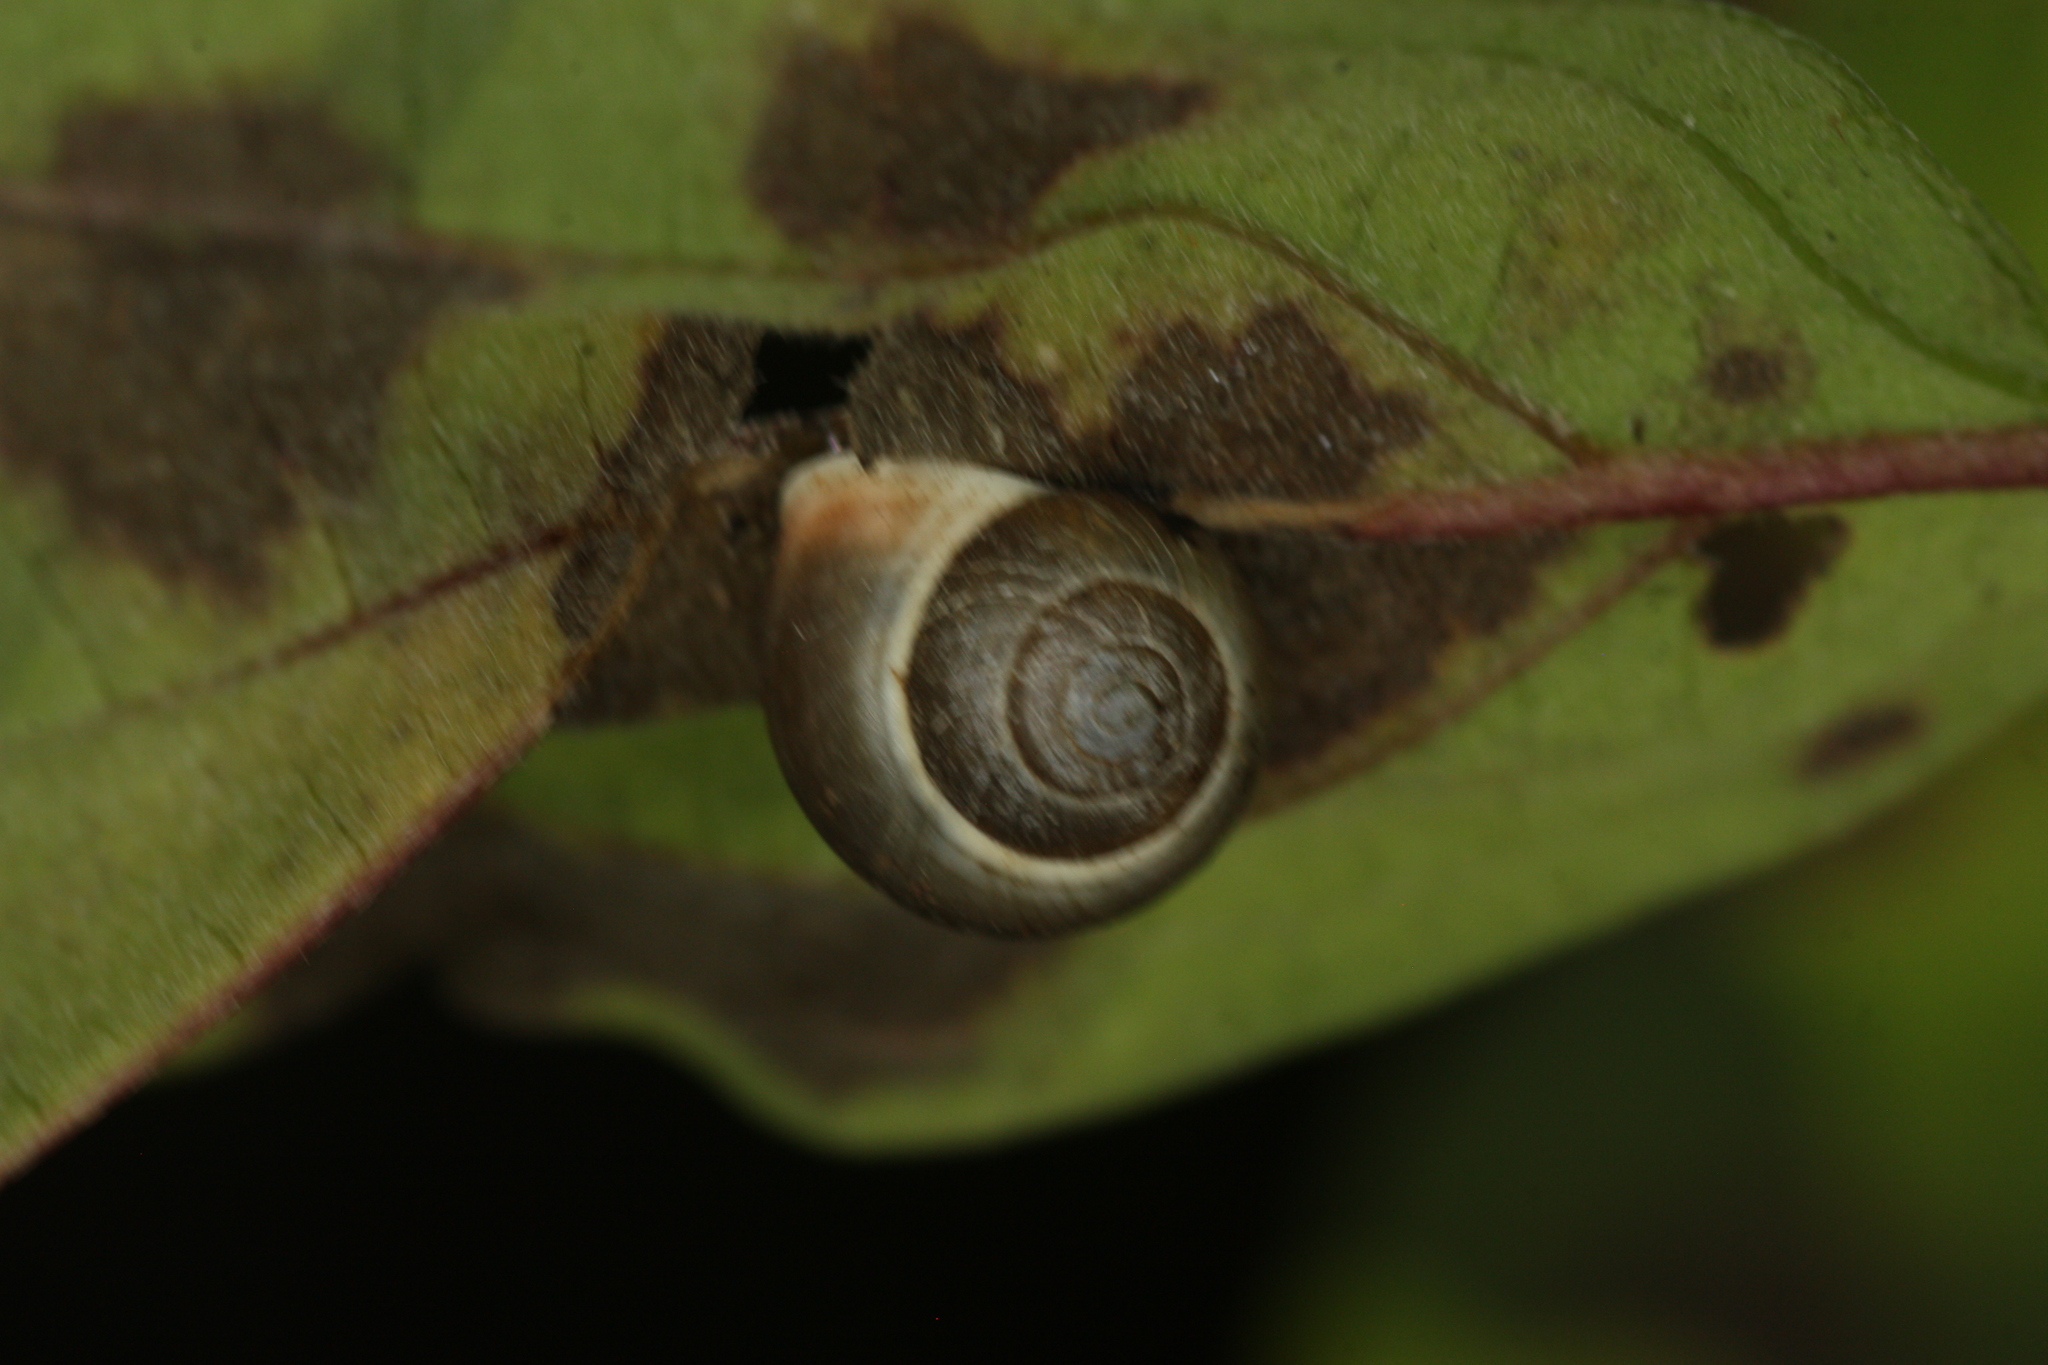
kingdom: Animalia
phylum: Mollusca
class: Gastropoda
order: Cycloneritida
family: Helicinidae
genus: Helicina
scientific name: Helicina orbiculata
